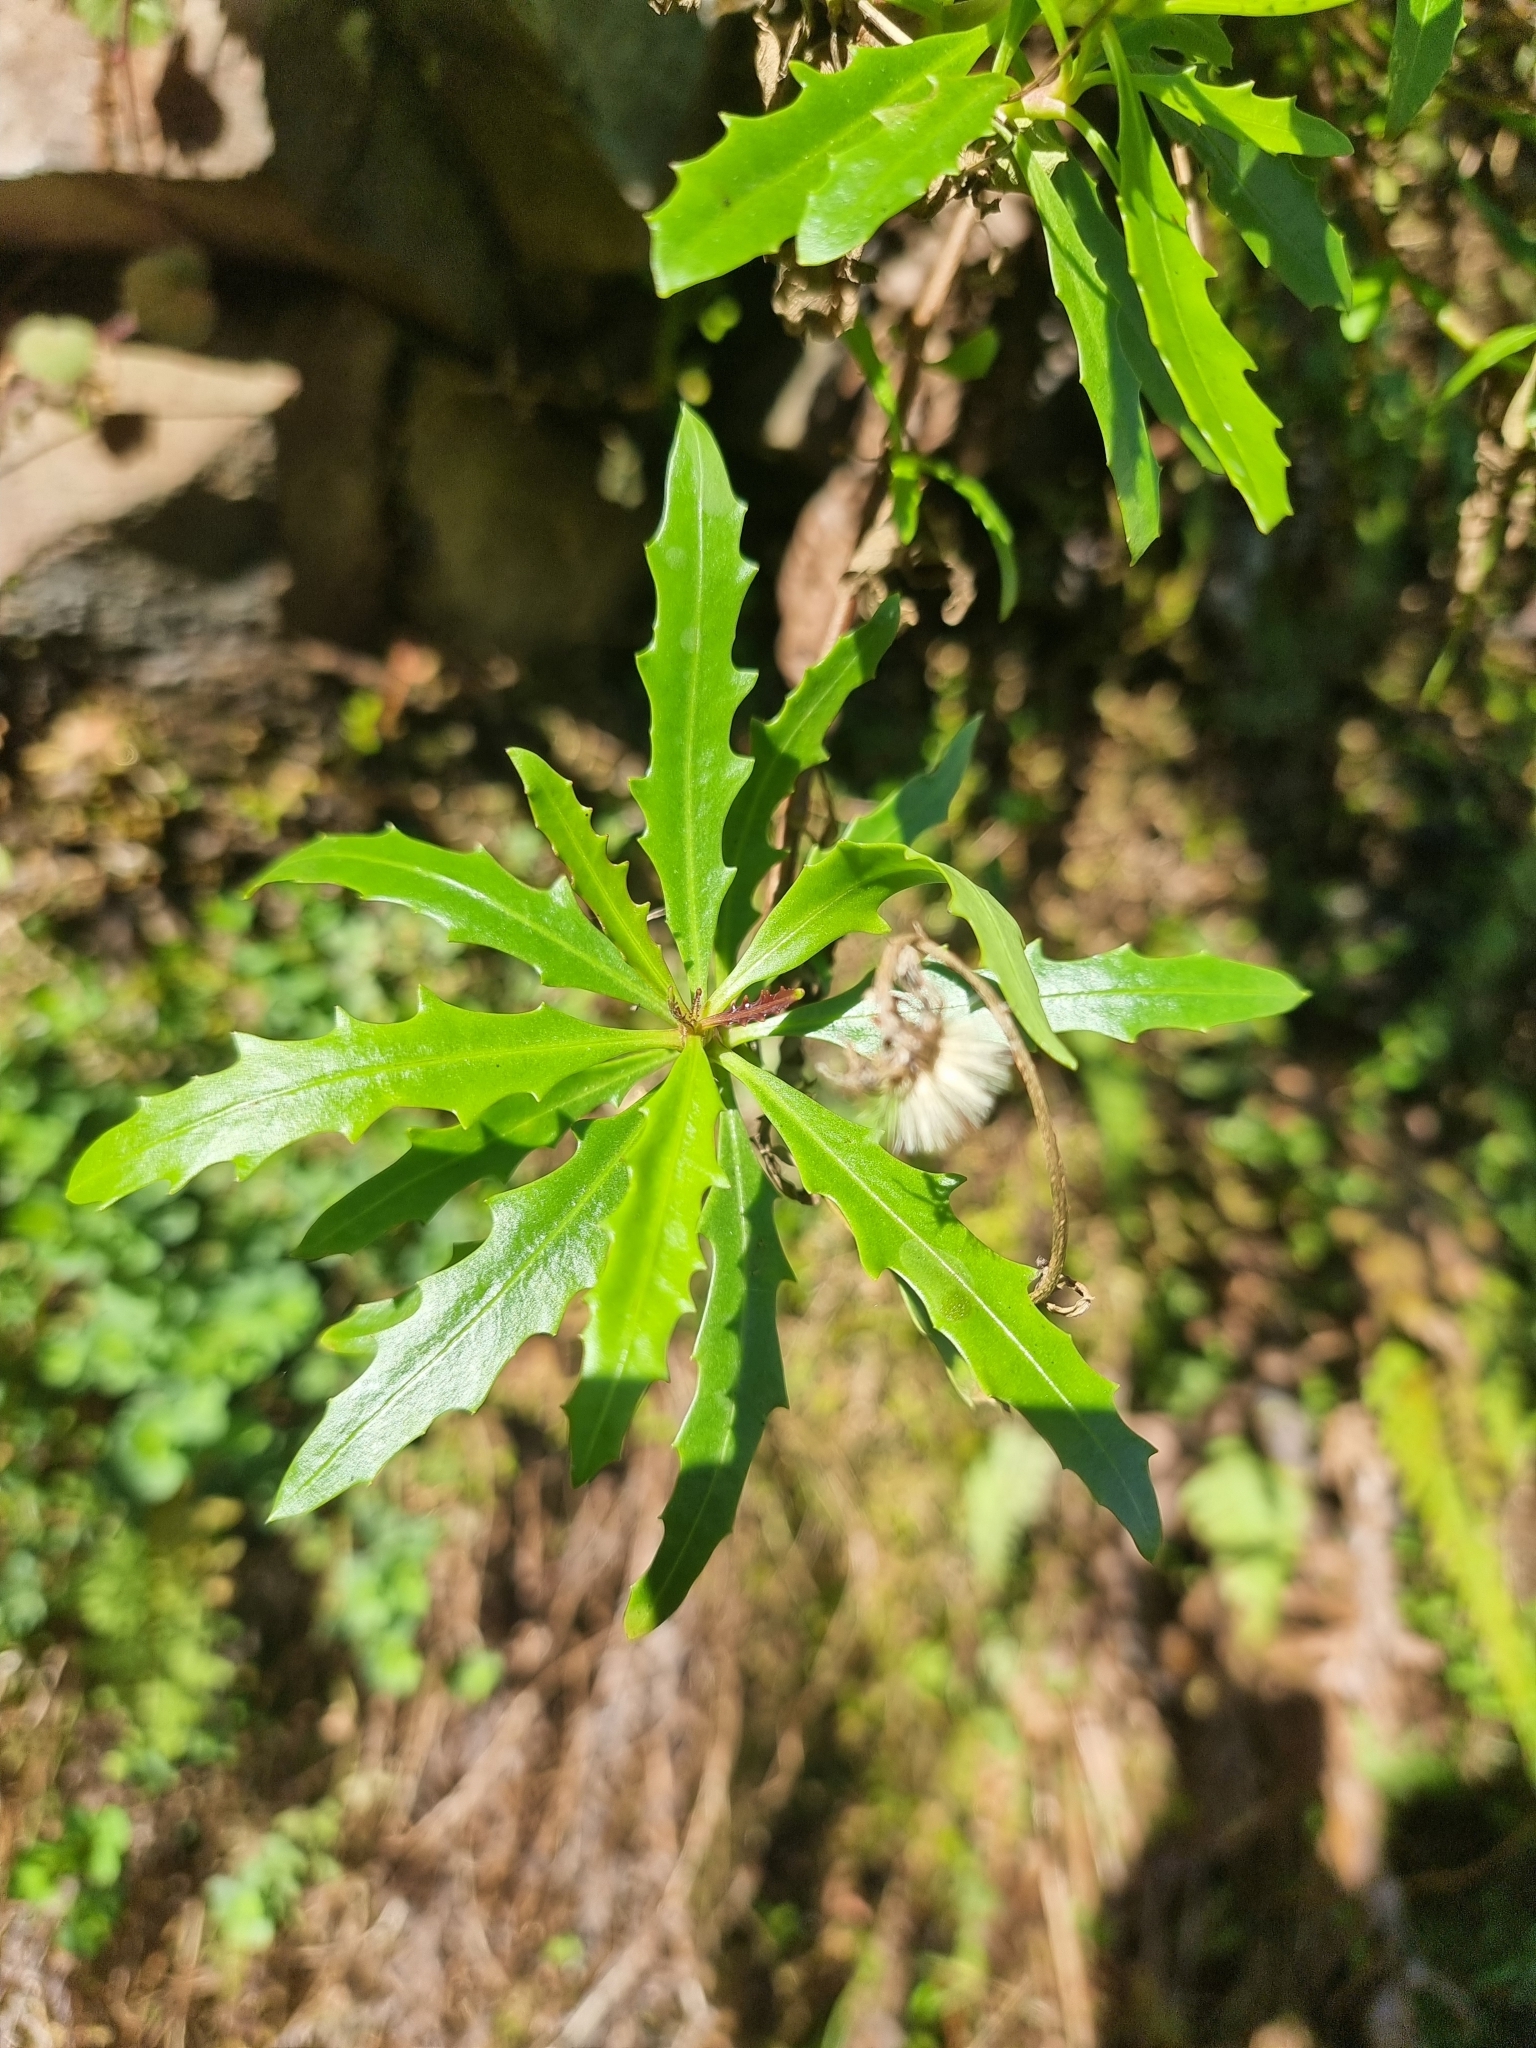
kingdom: Plantae
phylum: Tracheophyta
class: Magnoliopsida
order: Asterales
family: Asteraceae
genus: Tolpis
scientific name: Tolpis succulenta
